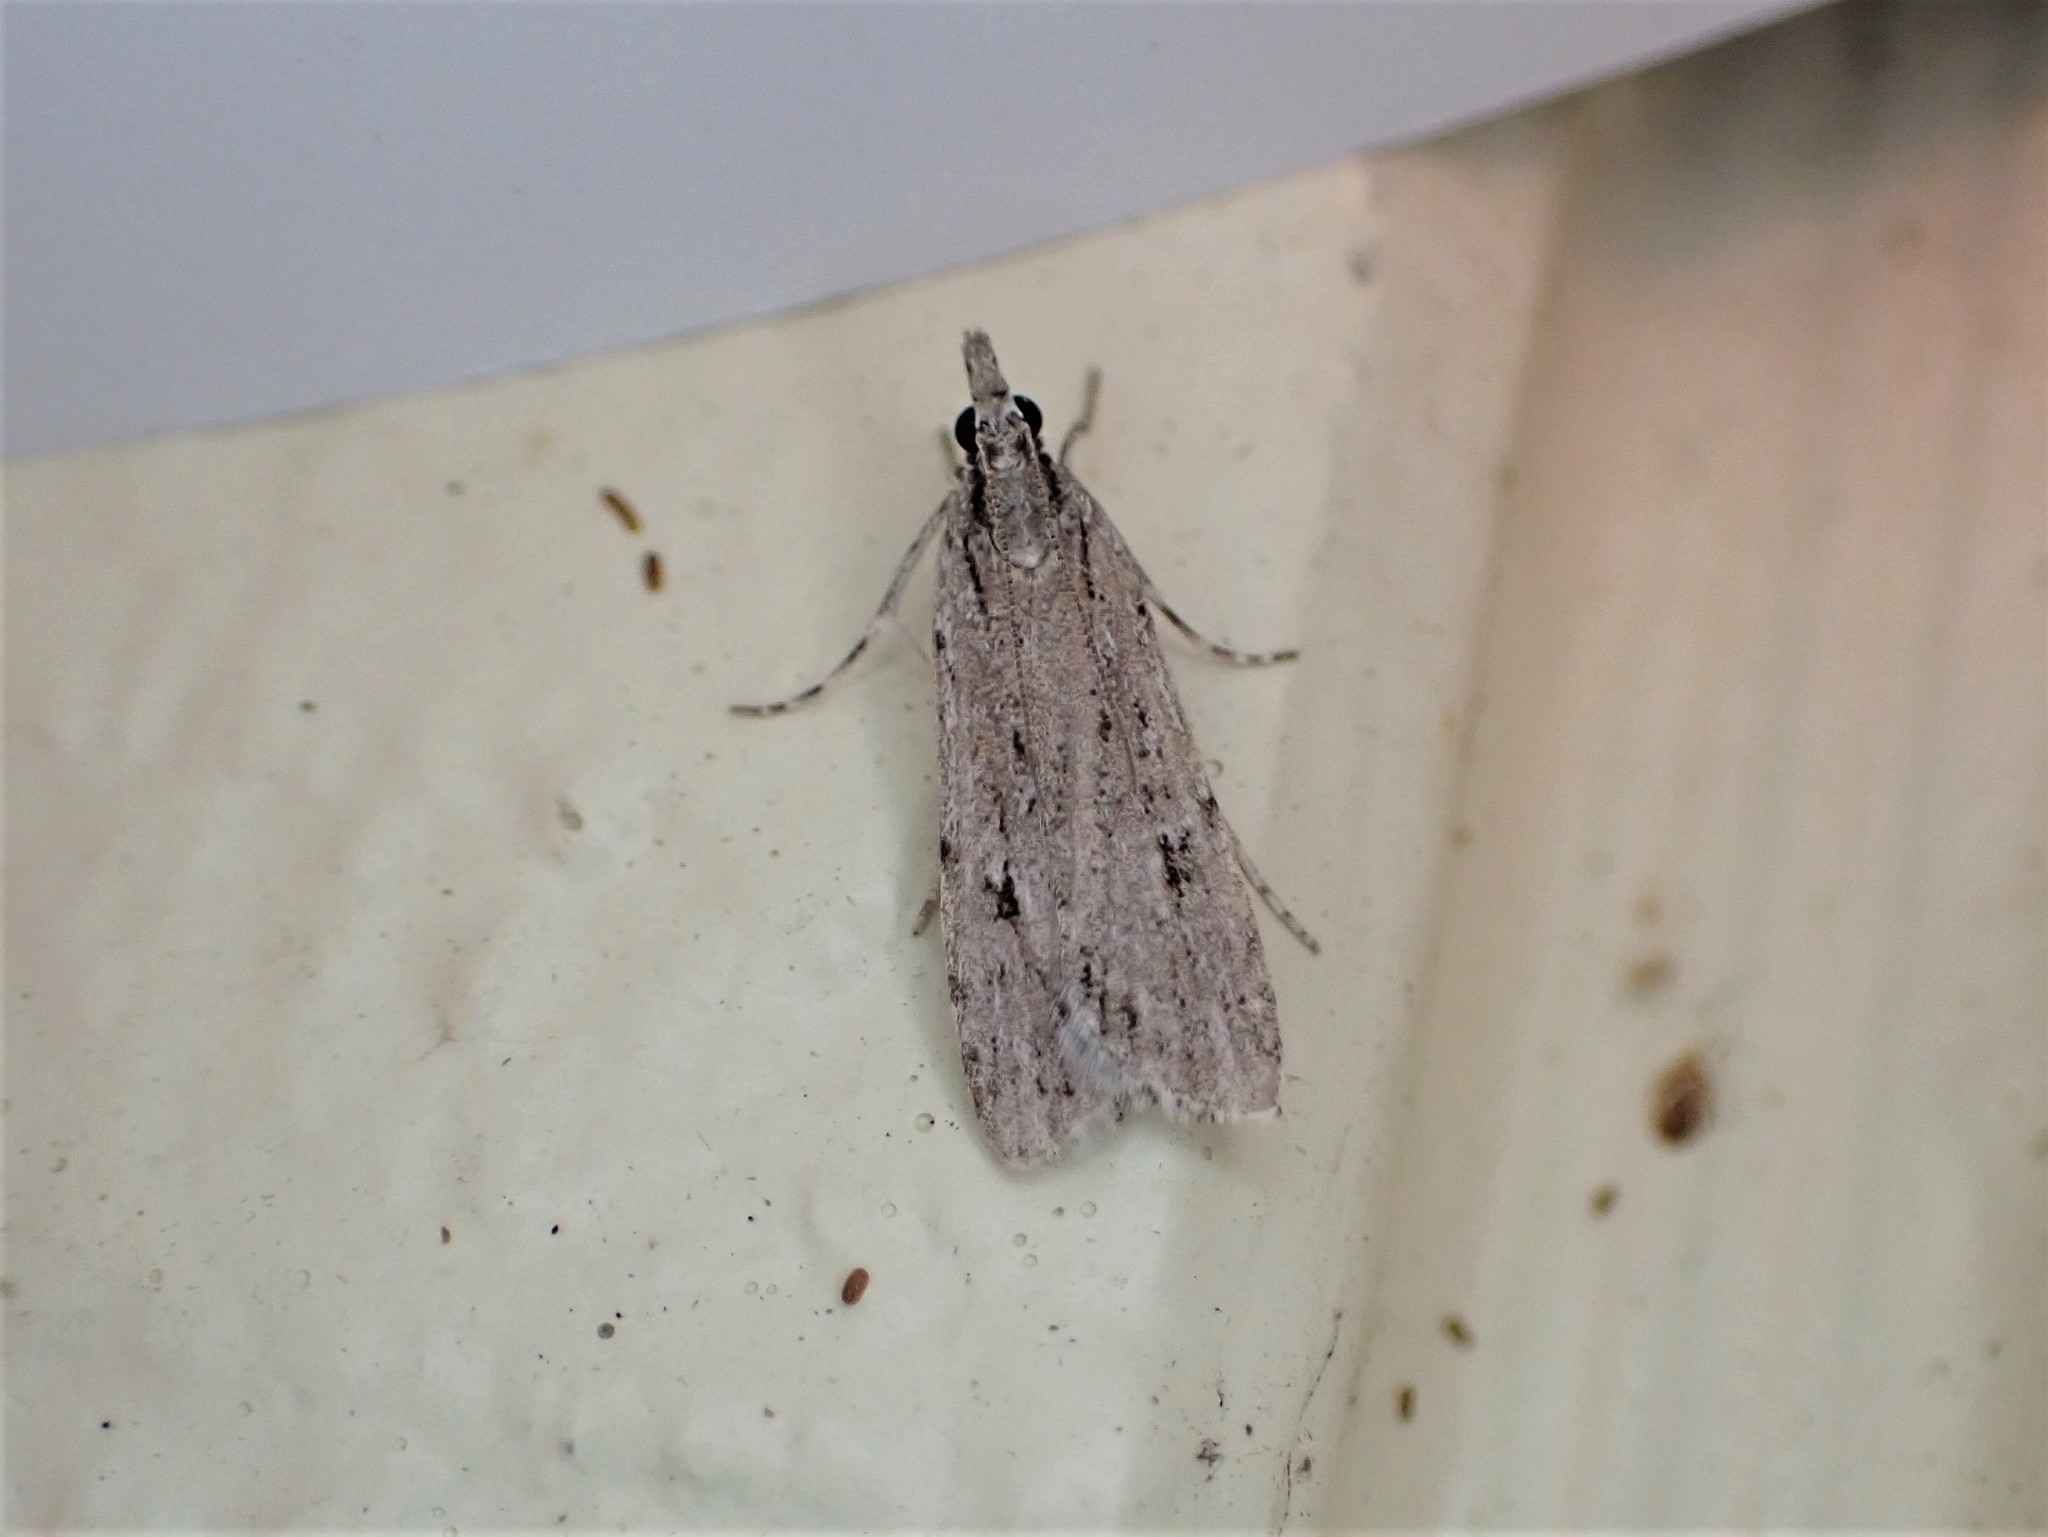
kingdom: Animalia
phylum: Arthropoda
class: Insecta
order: Lepidoptera
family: Crambidae
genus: Scoparia
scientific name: Scoparia chalicodes
